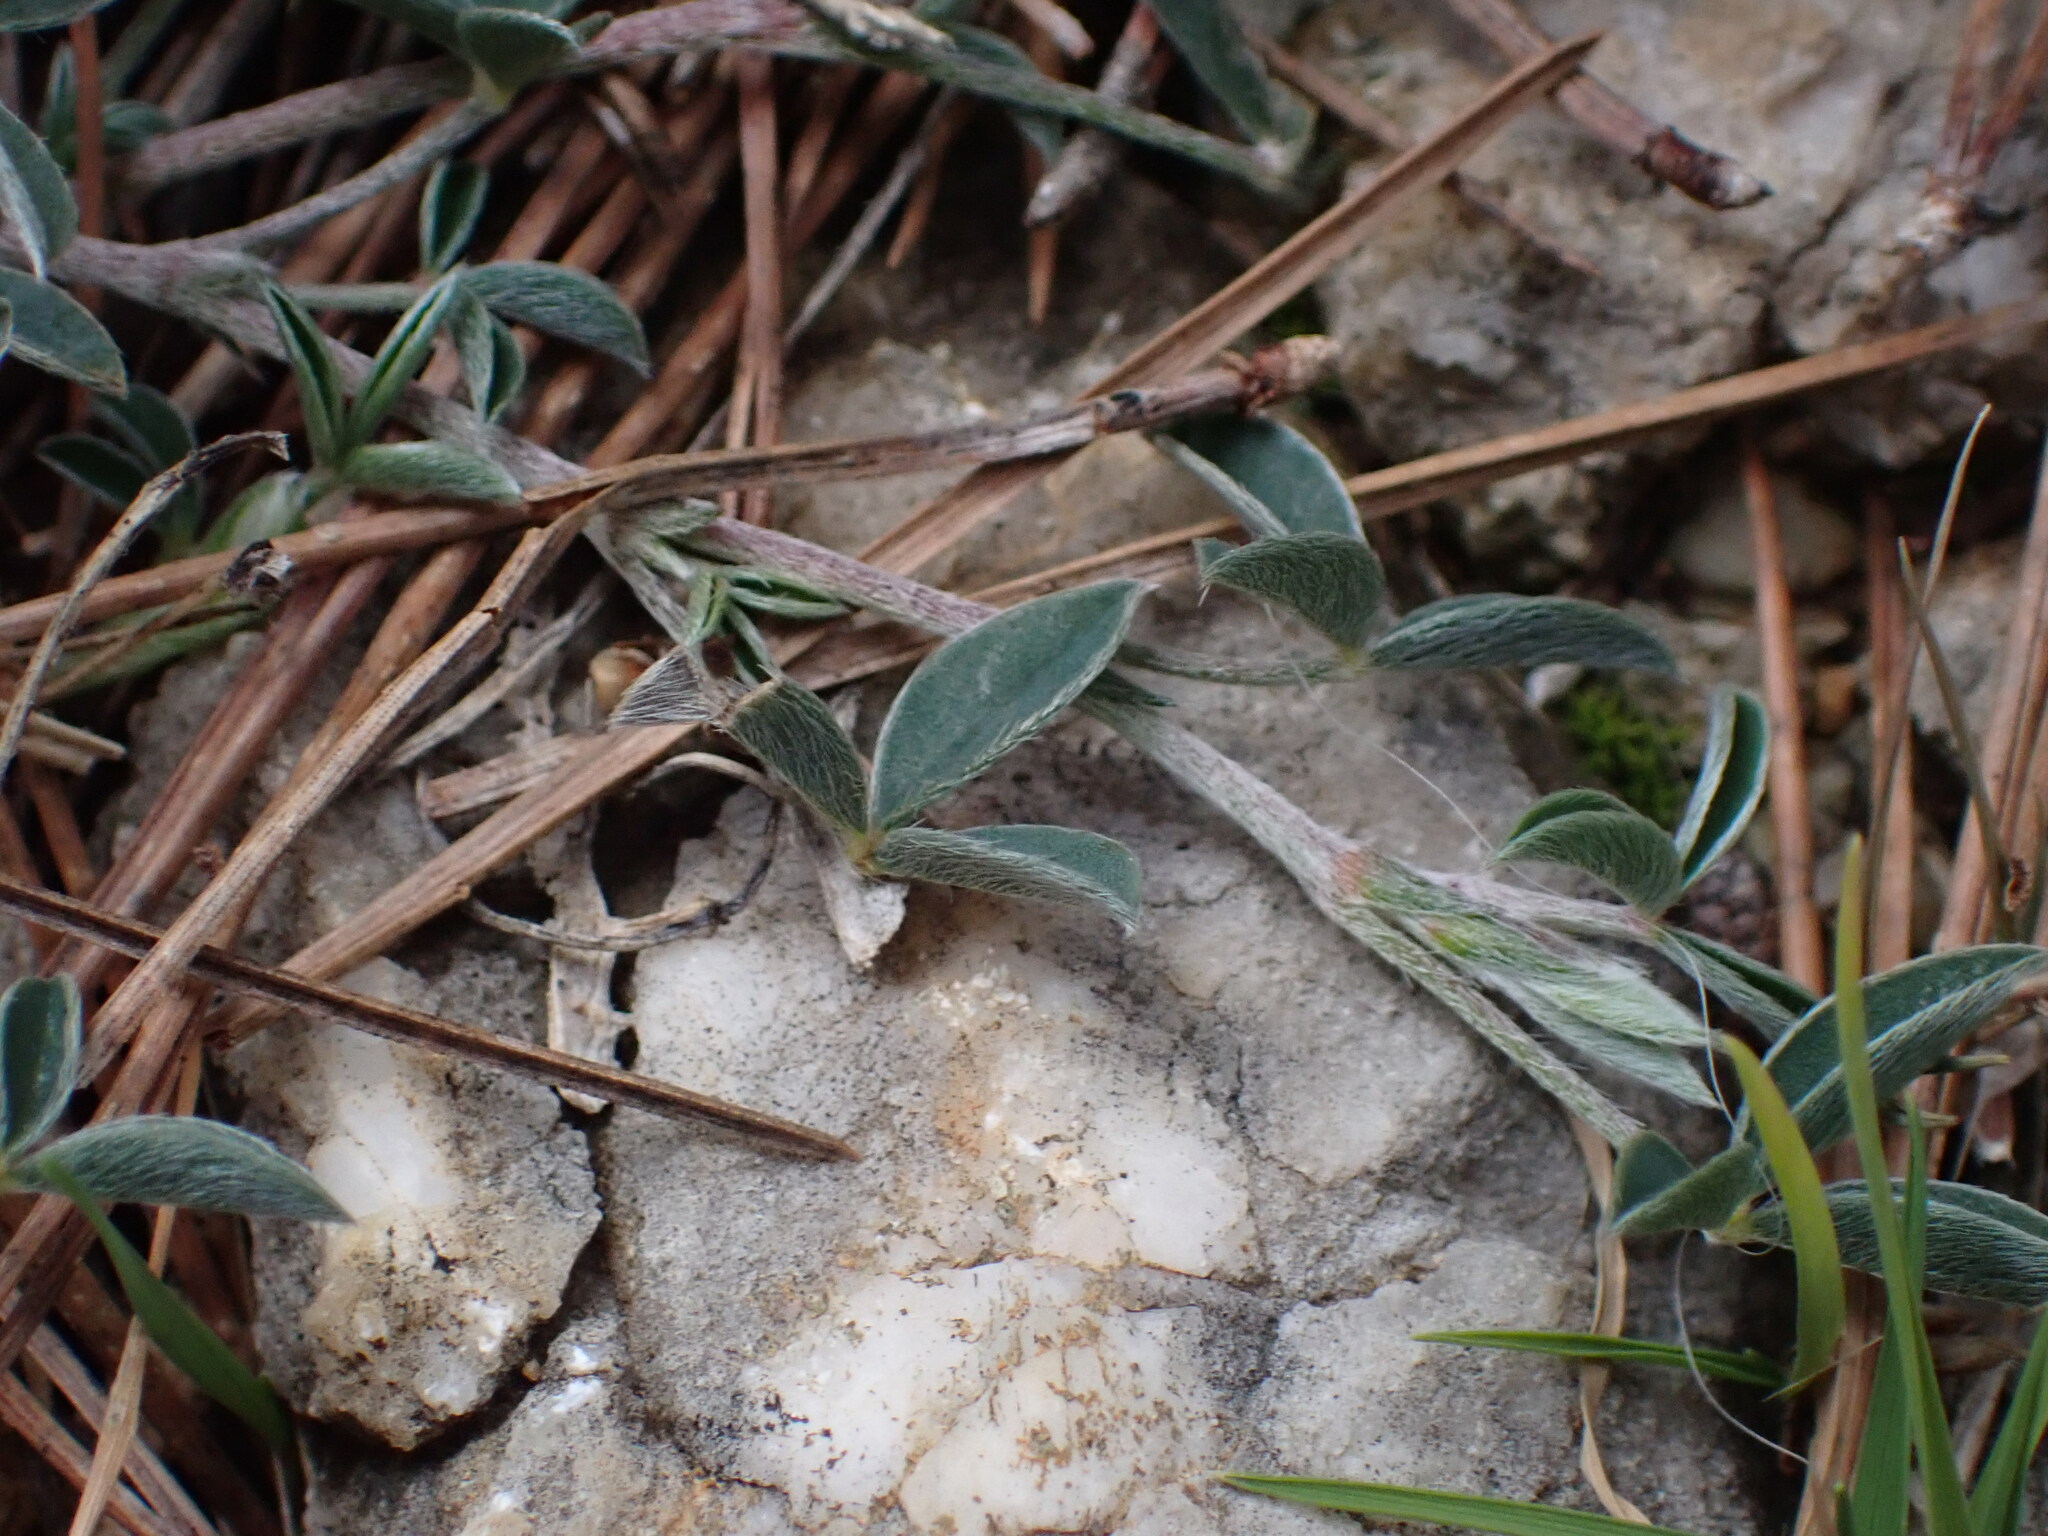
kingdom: Plantae
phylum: Tracheophyta
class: Magnoliopsida
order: Fabales
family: Fabaceae
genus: Argyrolobium
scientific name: Argyrolobium zanonii
